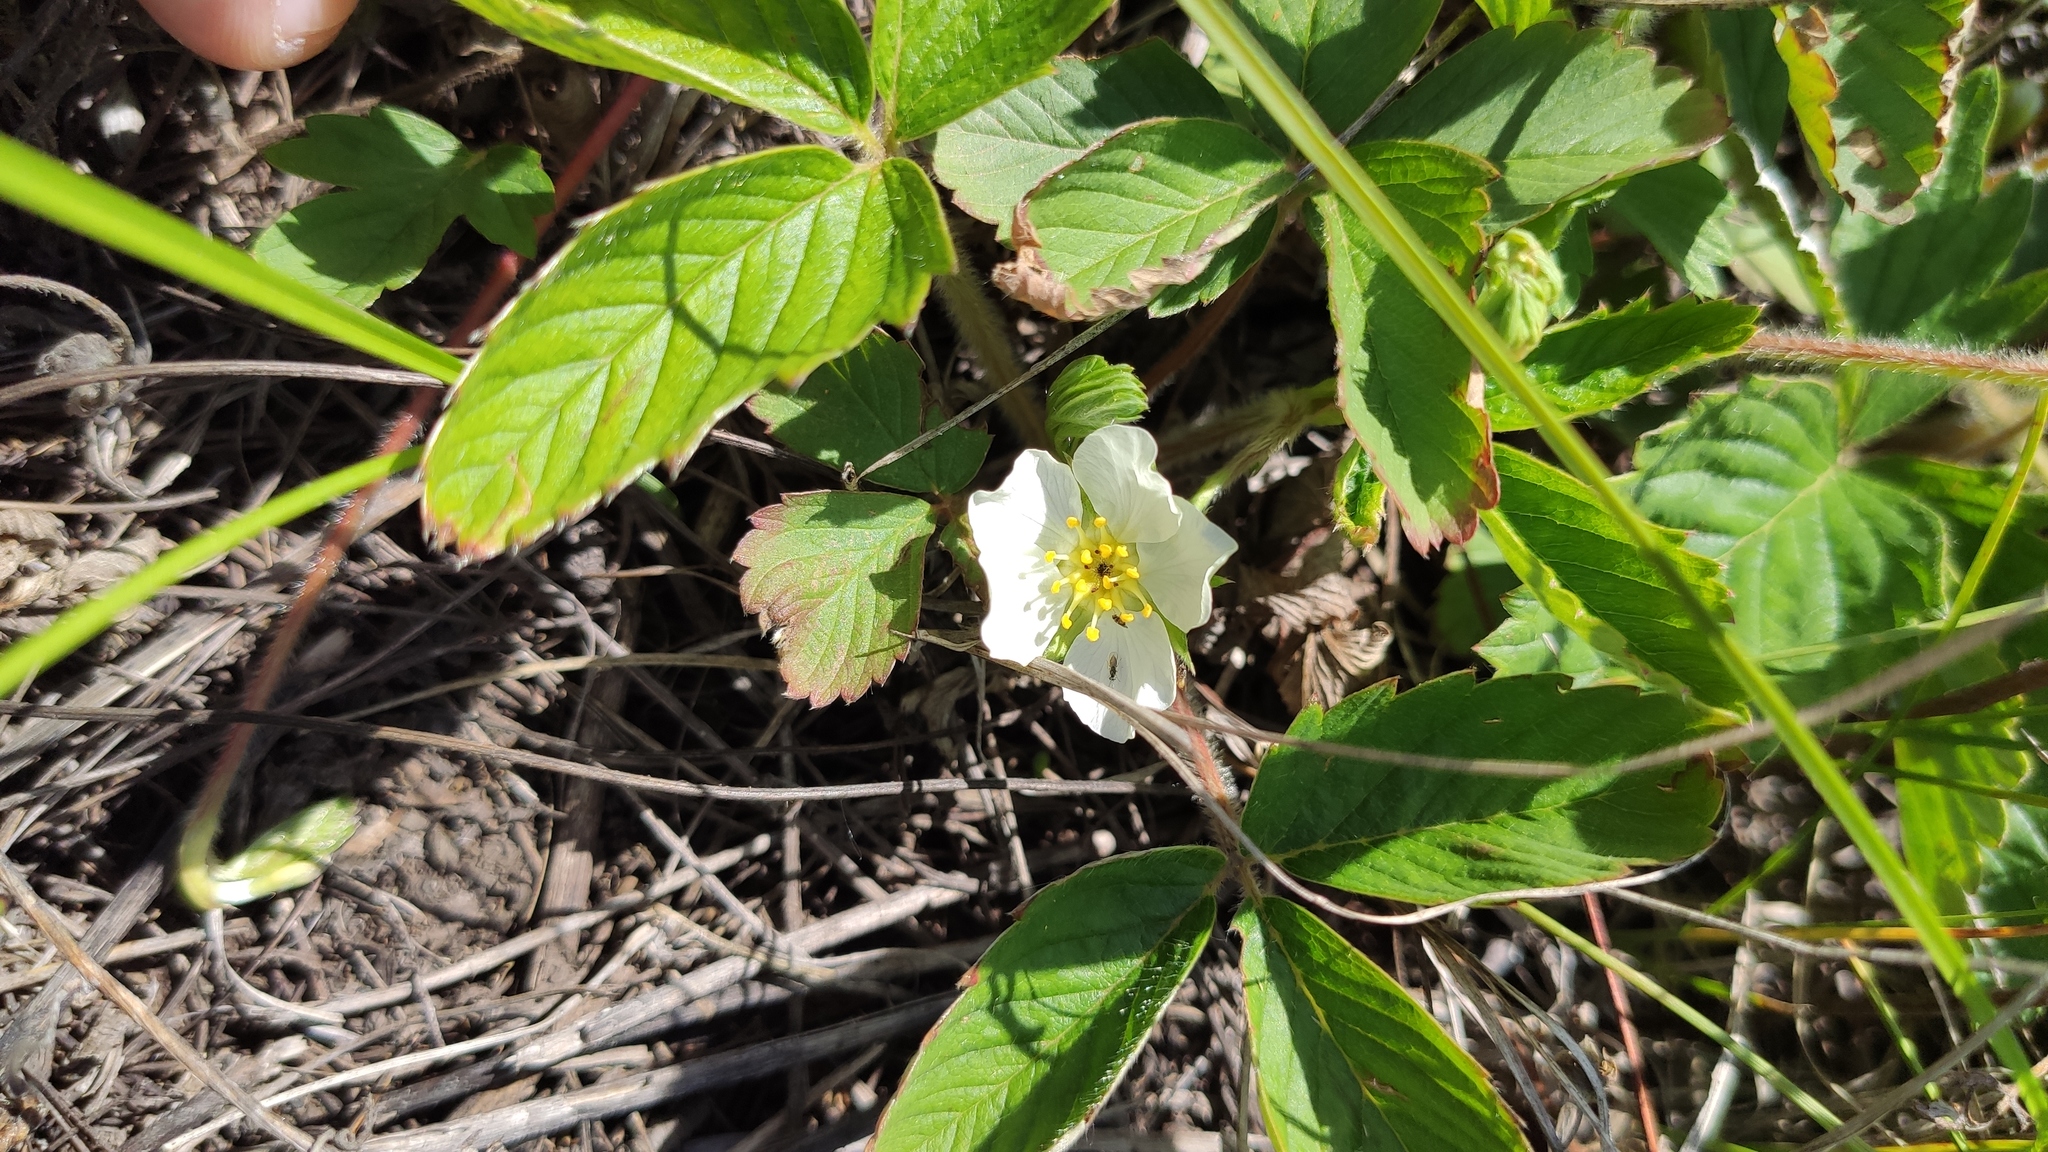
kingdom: Plantae
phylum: Tracheophyta
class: Magnoliopsida
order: Rosales
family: Rosaceae
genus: Fragaria
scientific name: Fragaria viridis
